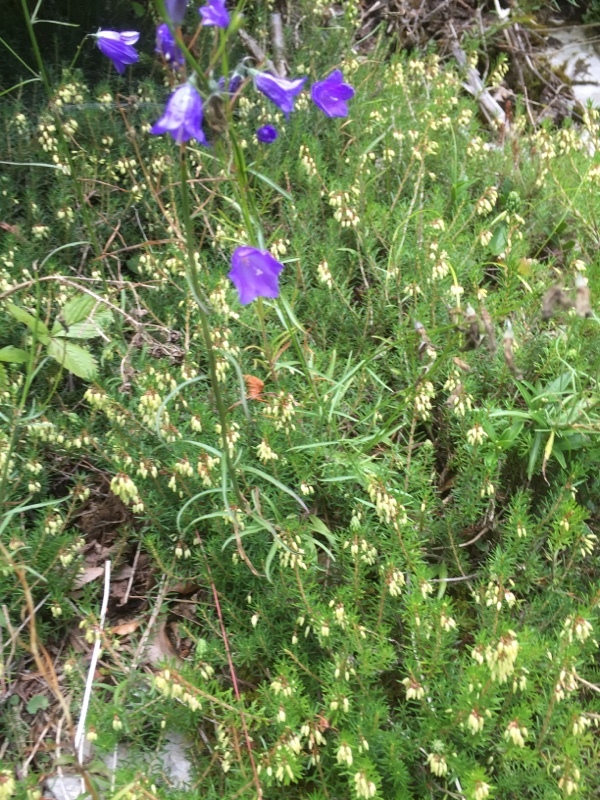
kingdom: Plantae
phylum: Tracheophyta
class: Magnoliopsida
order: Ericales
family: Ericaceae
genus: Erica
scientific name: Erica carnea
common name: Winter heath
